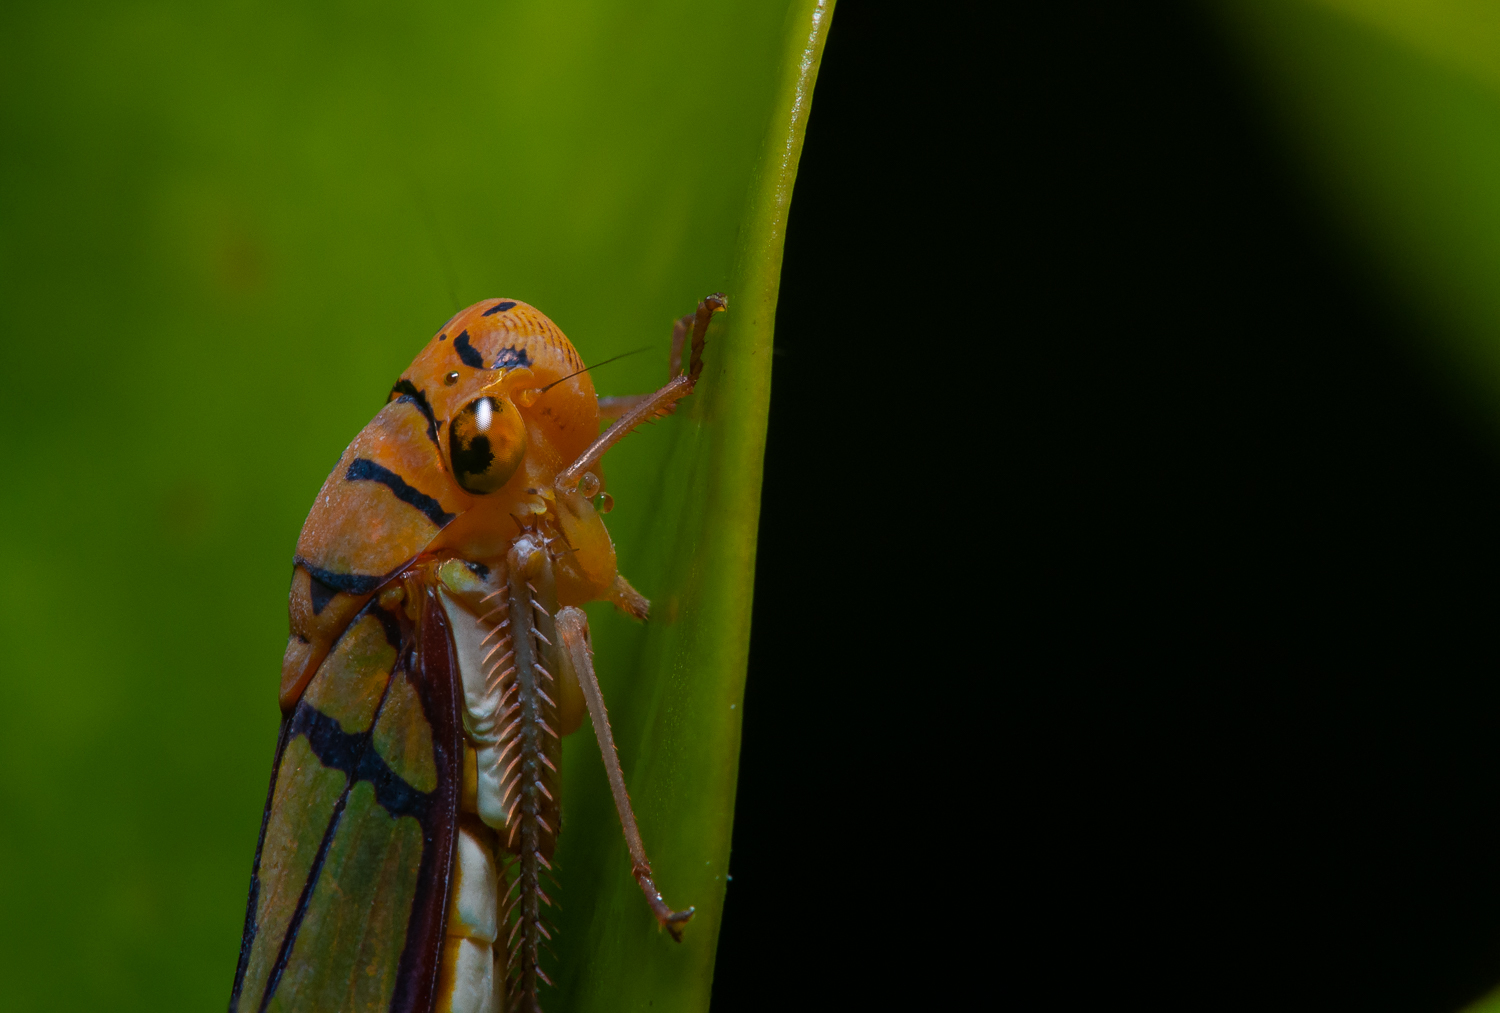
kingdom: Animalia
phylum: Arthropoda
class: Insecta
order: Hemiptera
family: Cicadellidae
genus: Dilobopterus
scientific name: Dilobopterus instratus
